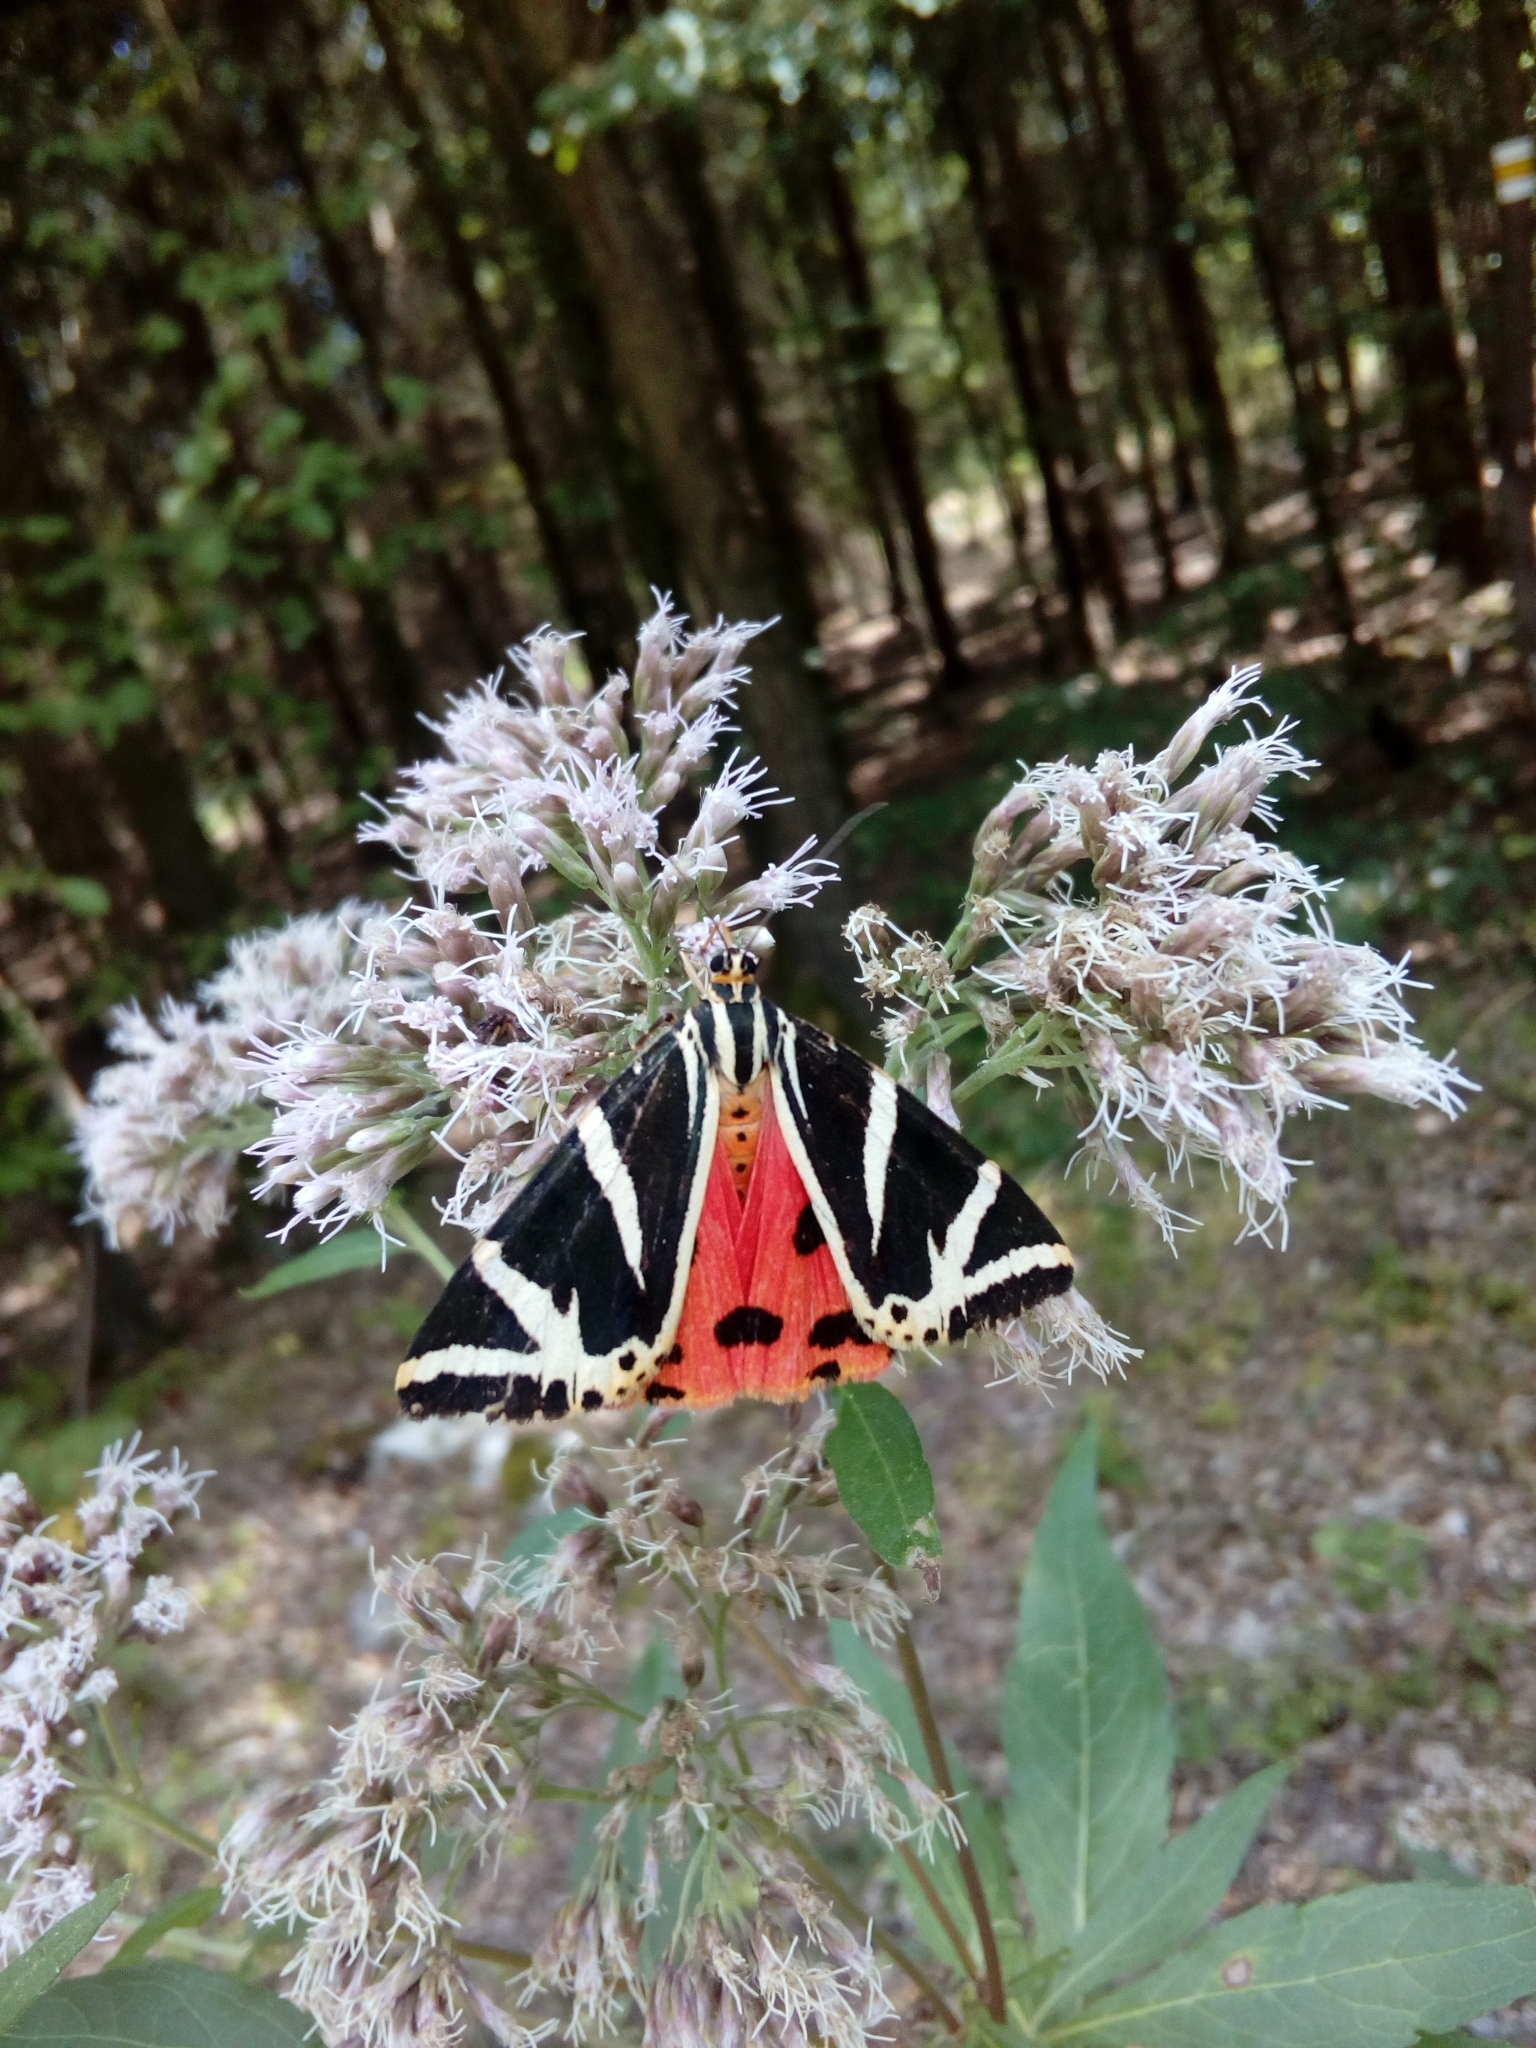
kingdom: Animalia
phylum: Arthropoda
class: Insecta
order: Lepidoptera
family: Erebidae
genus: Euplagia
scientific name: Euplagia quadripunctaria
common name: Jersey tiger
